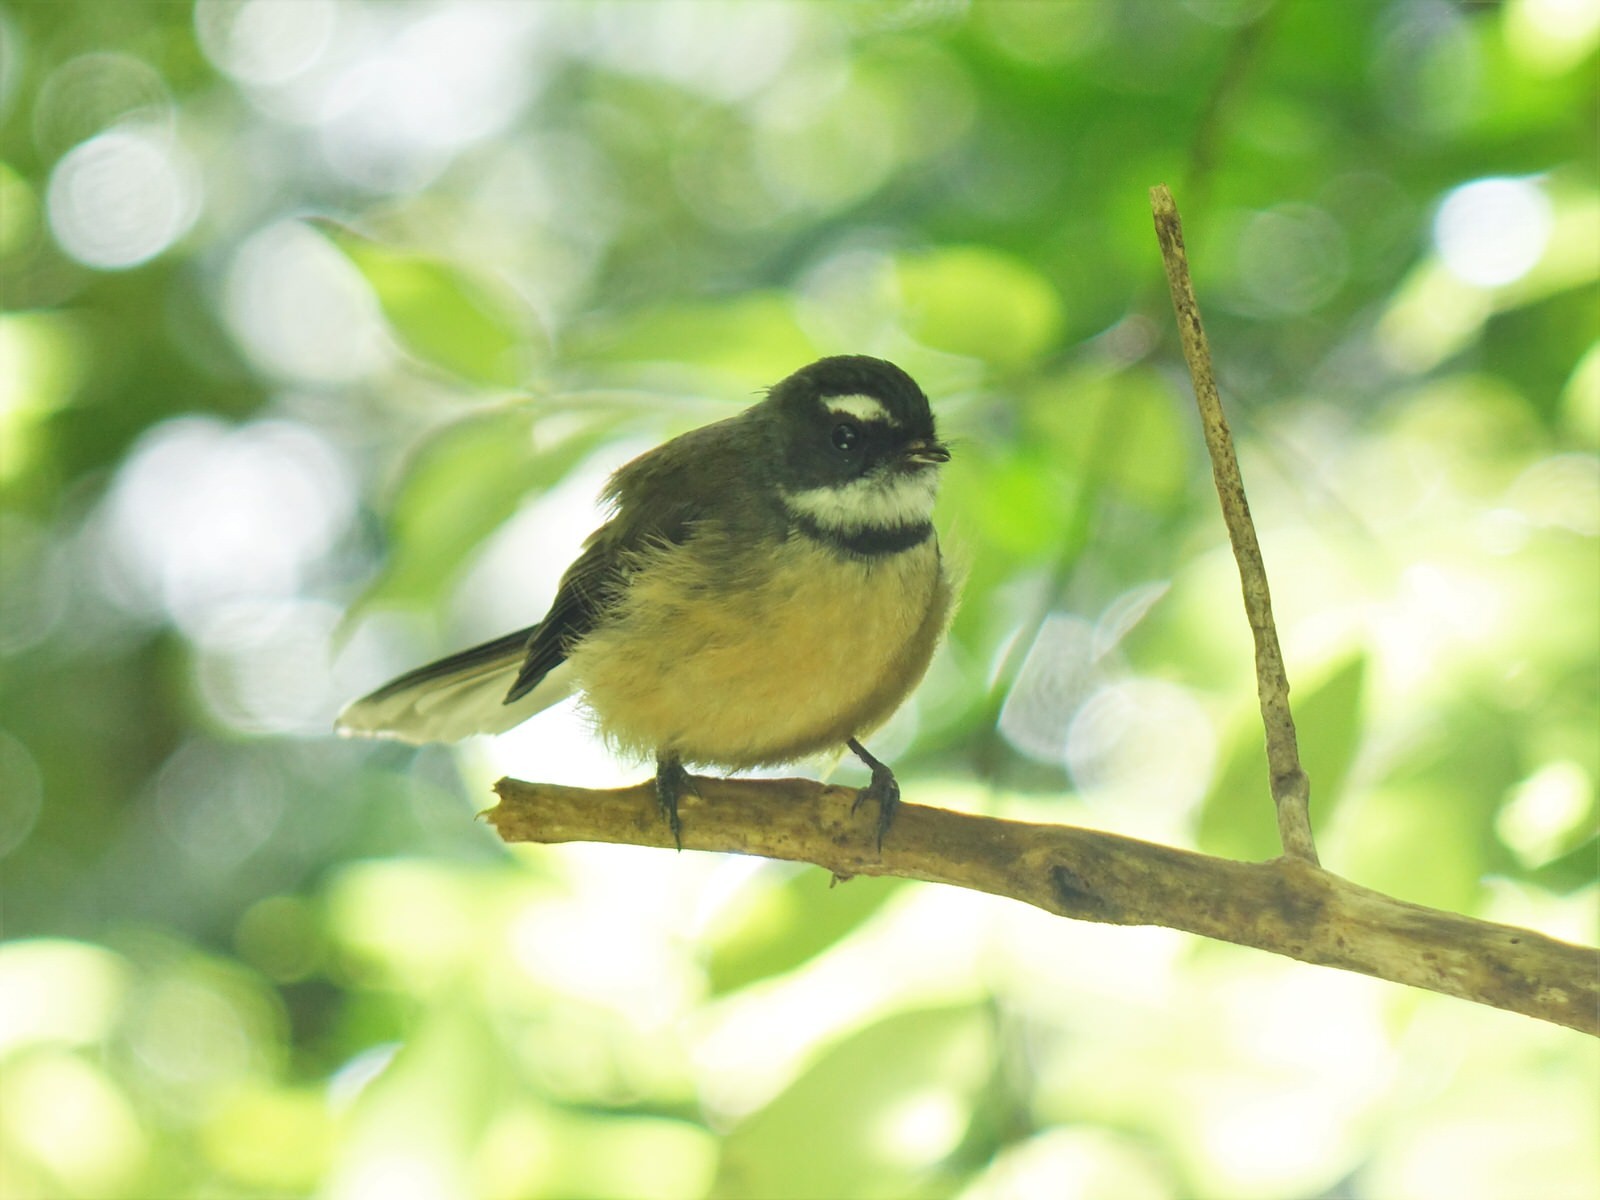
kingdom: Animalia
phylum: Chordata
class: Aves
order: Passeriformes
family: Rhipiduridae
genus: Rhipidura
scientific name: Rhipidura fuliginosa
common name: New zealand fantail
